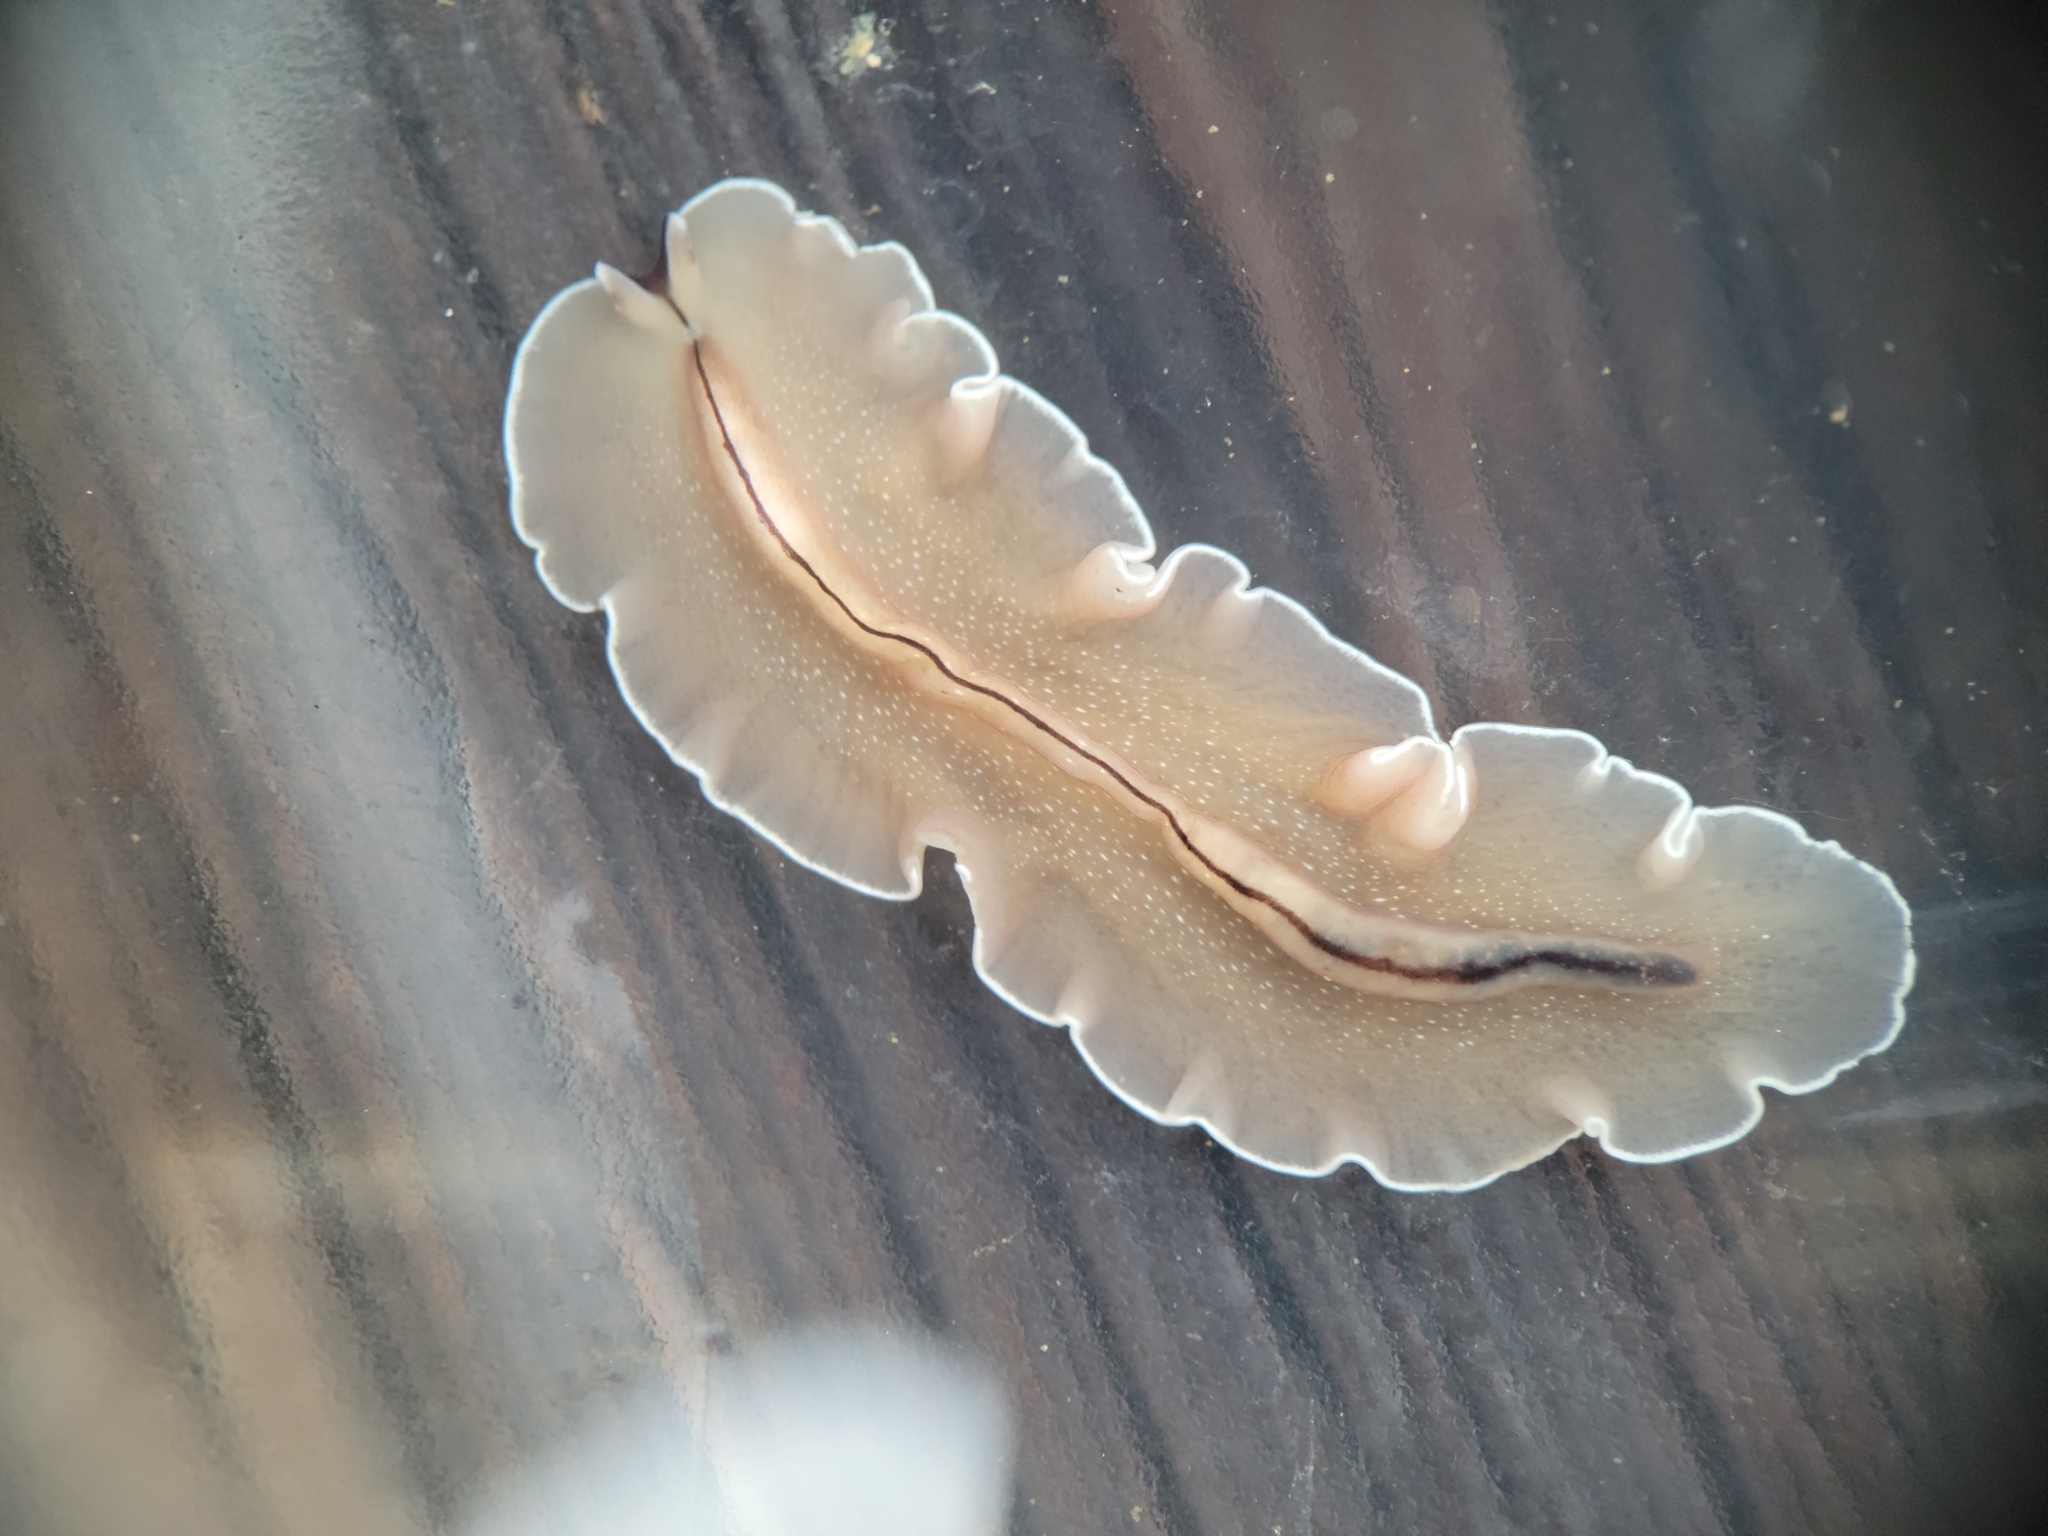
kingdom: Animalia
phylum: Platyhelminthes
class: Turbellaria
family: Pseudocerotidae
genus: Pseudoceros
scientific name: Pseudoceros luteus
